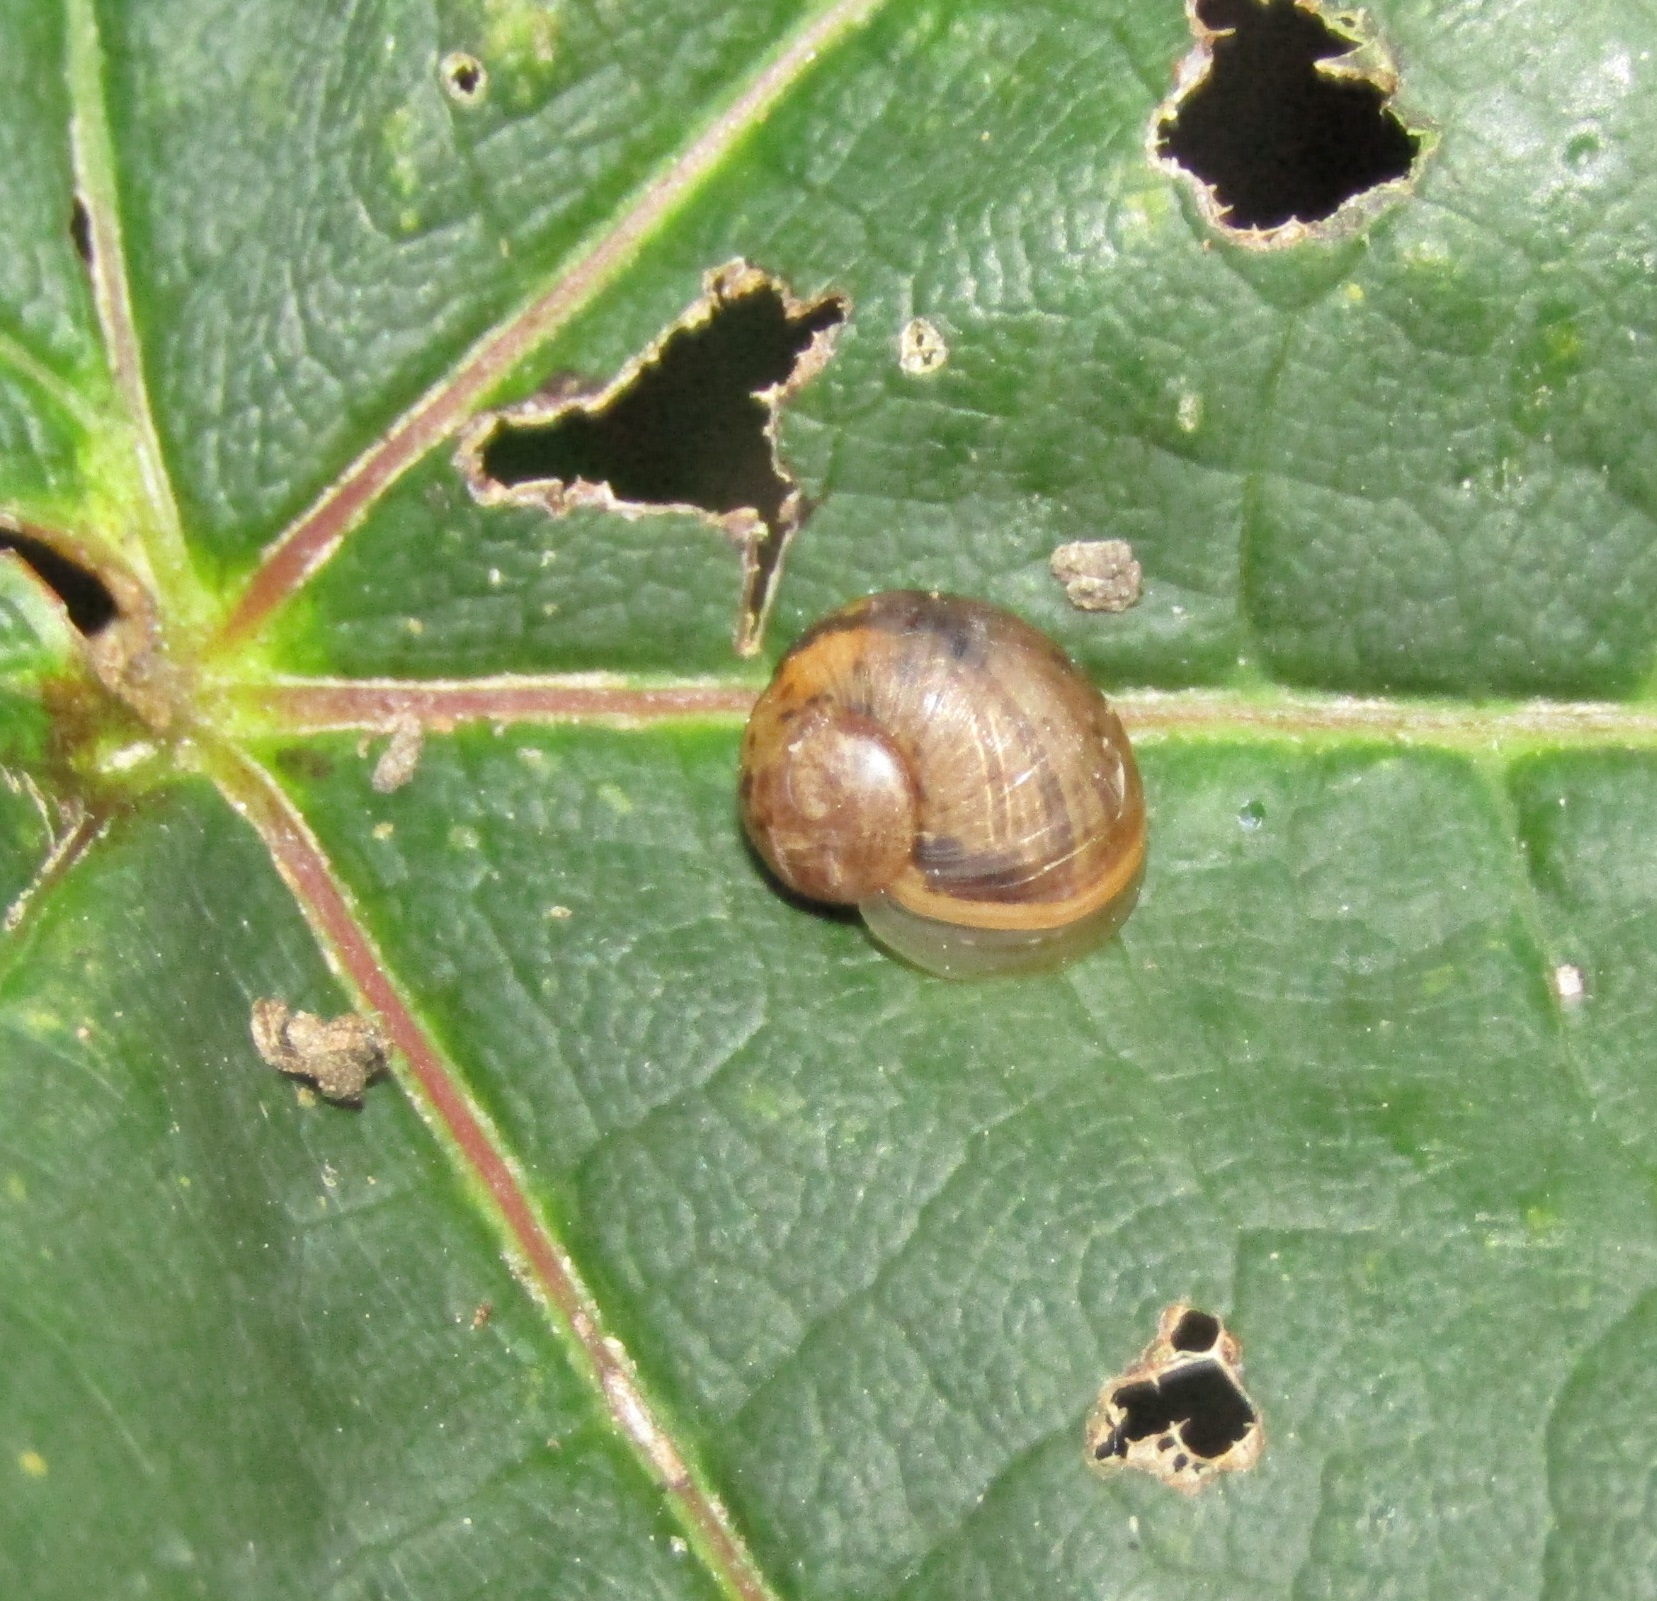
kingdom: Animalia
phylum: Mollusca
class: Gastropoda
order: Stylommatophora
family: Helicidae
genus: Cornu
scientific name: Cornu aspersum
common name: Brown garden snail
